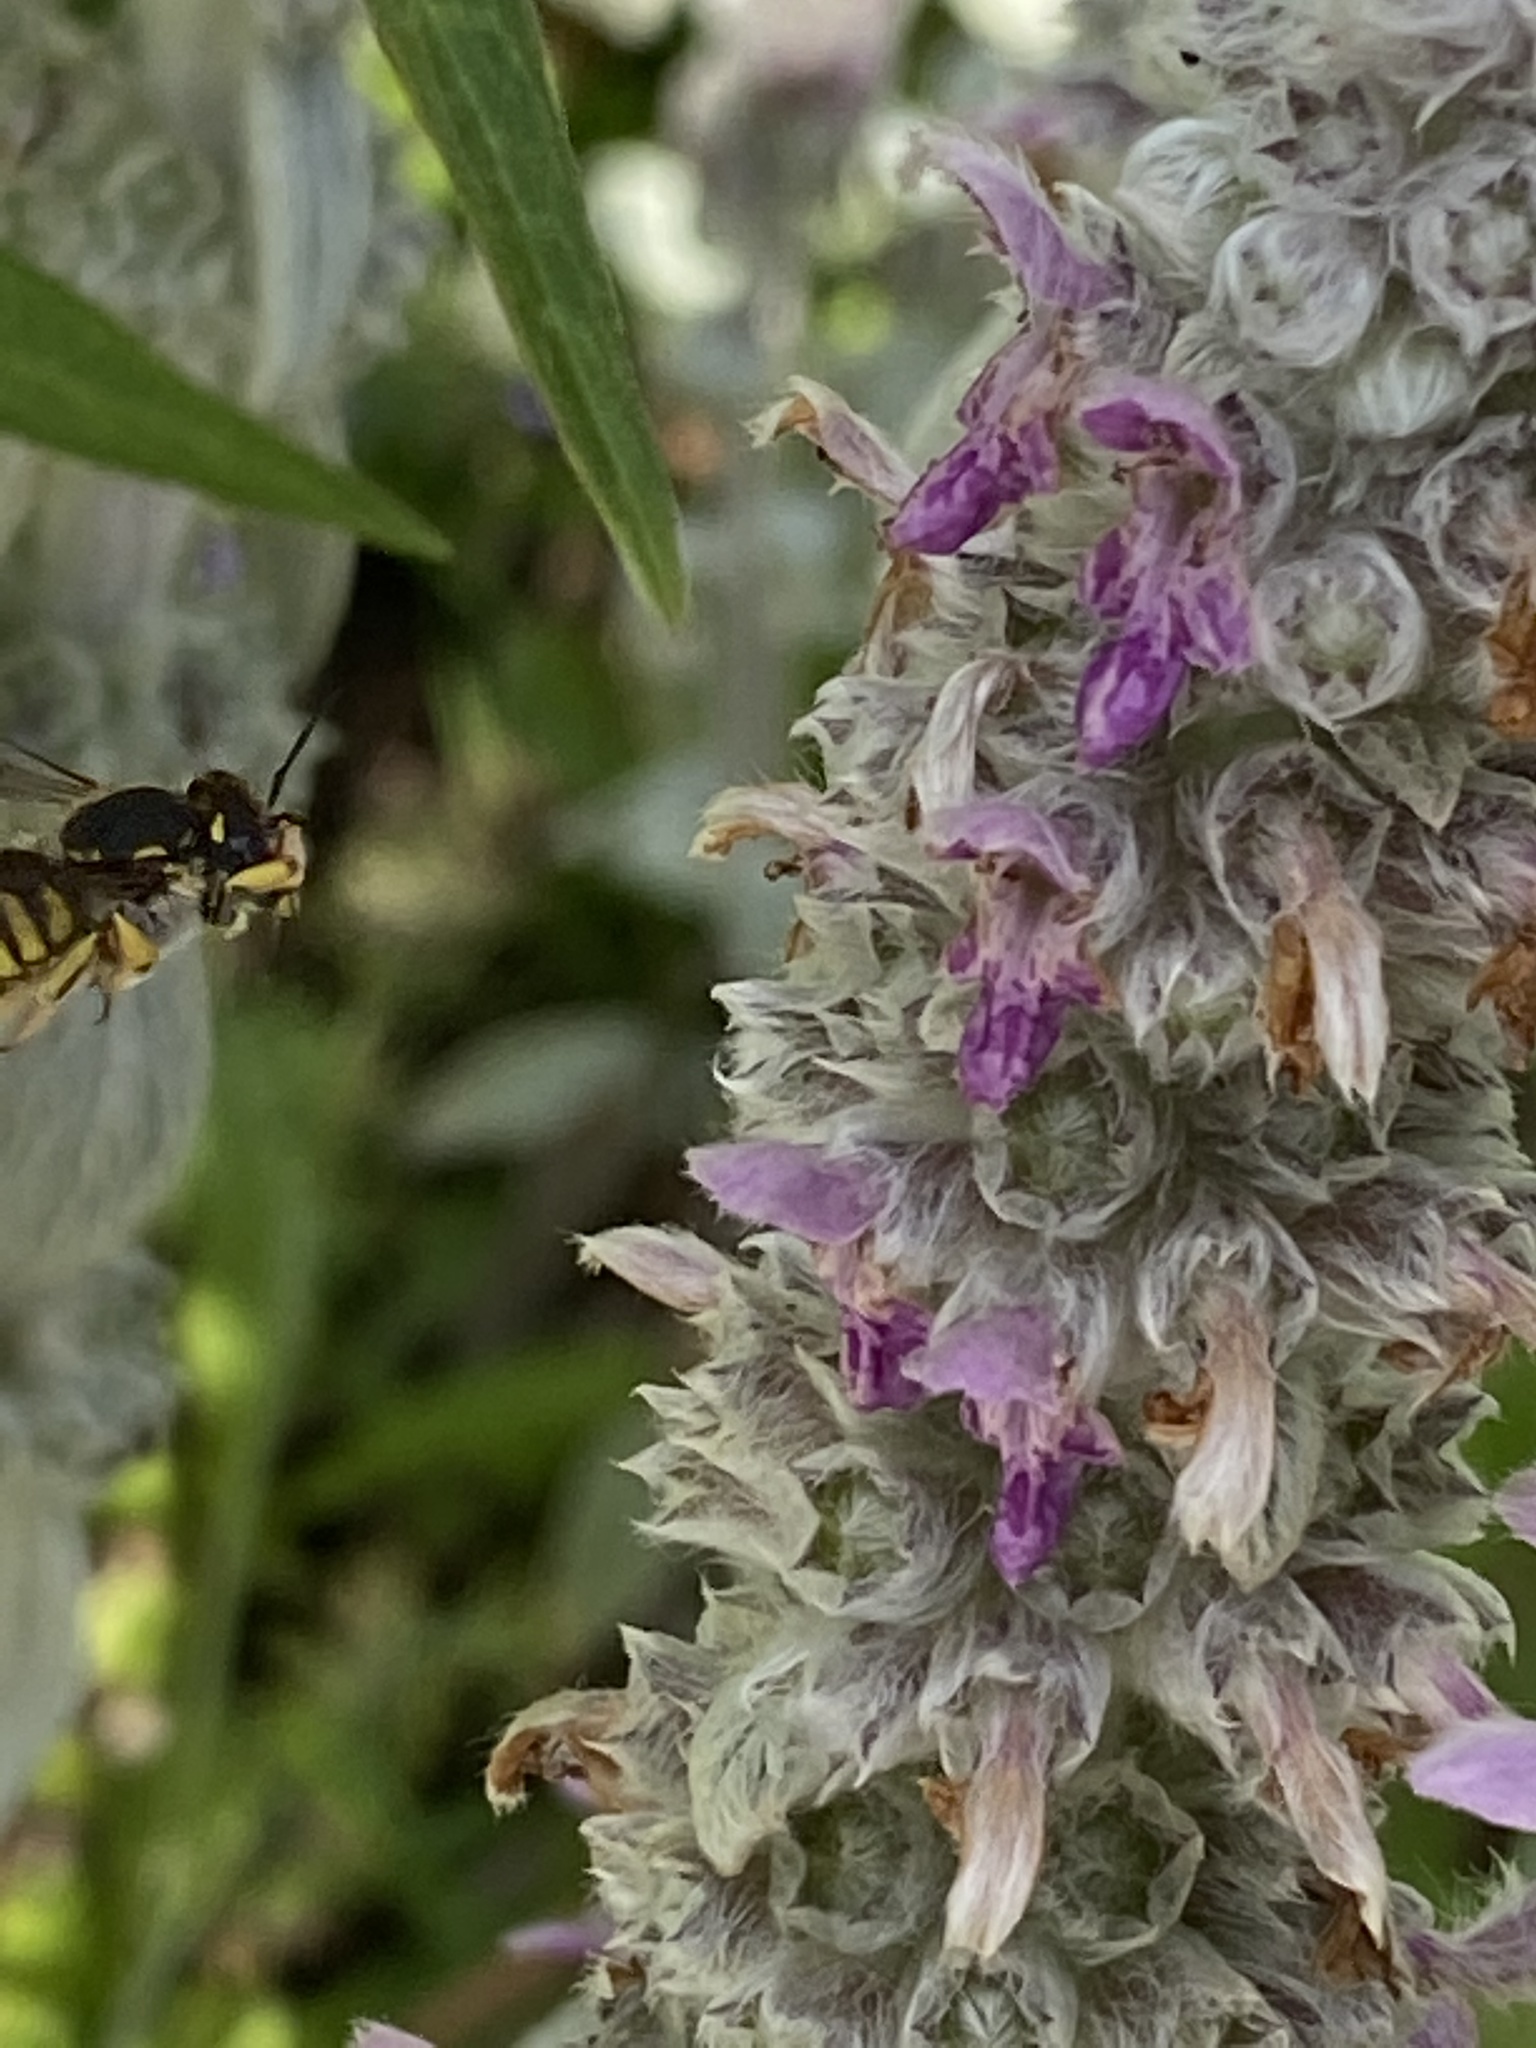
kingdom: Animalia
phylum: Arthropoda
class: Insecta
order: Hymenoptera
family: Megachilidae
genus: Anthidium
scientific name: Anthidium manicatum
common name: Wool carder bee
